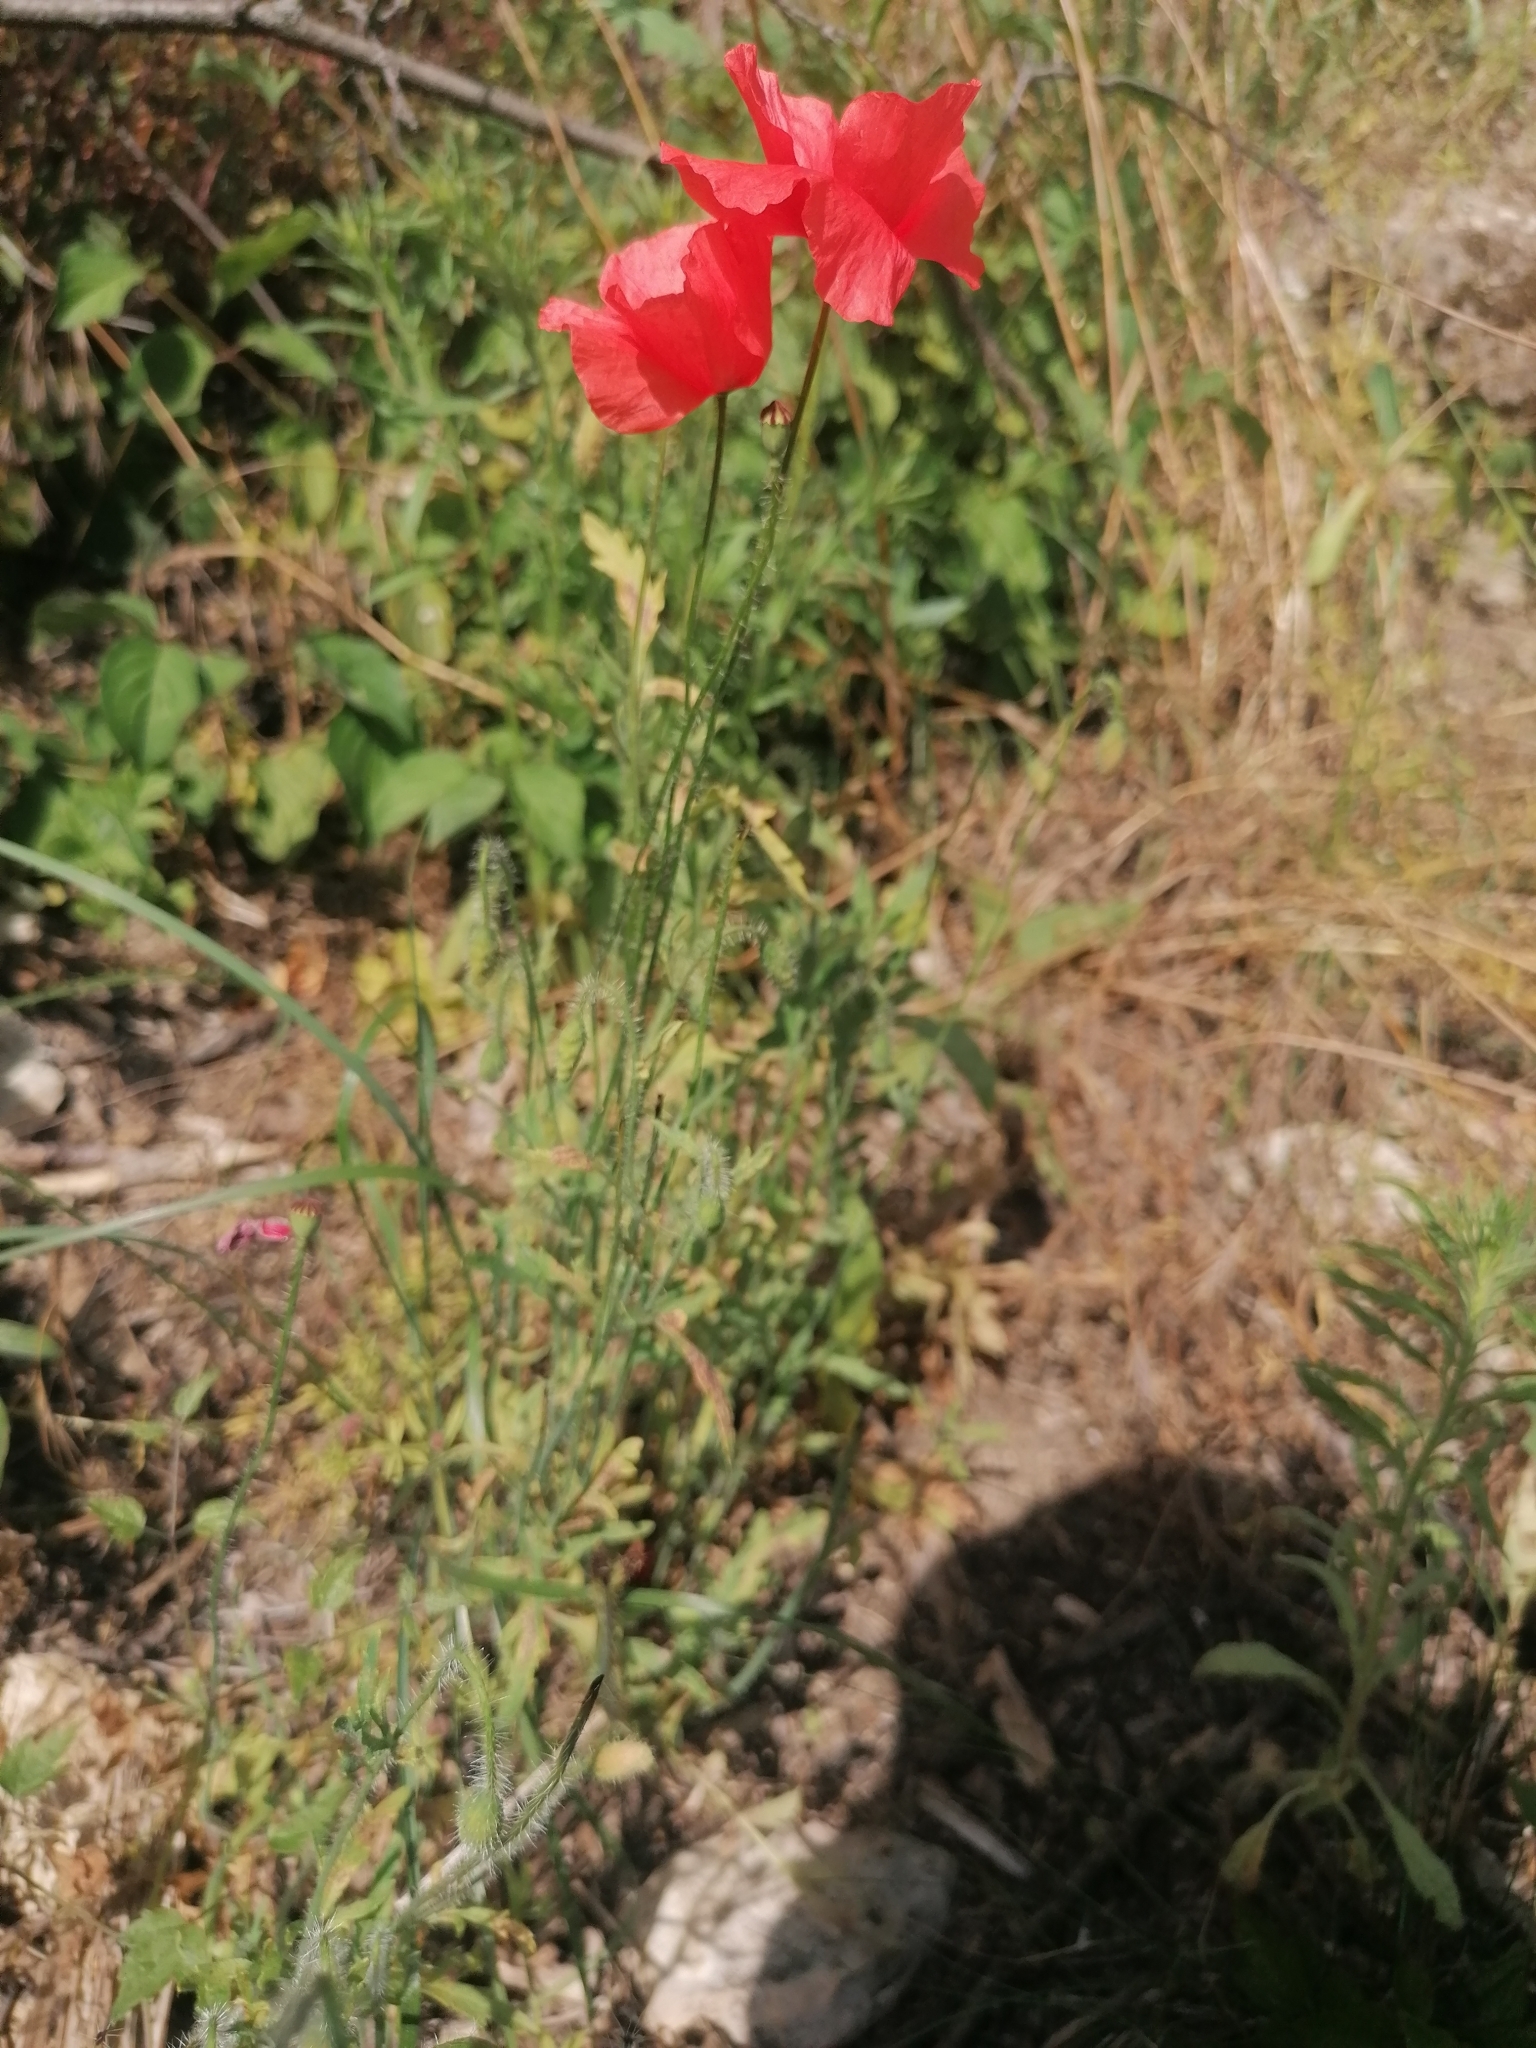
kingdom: Plantae
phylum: Tracheophyta
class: Magnoliopsida
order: Ranunculales
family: Papaveraceae
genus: Papaver
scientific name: Papaver rhoeas
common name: Corn poppy
